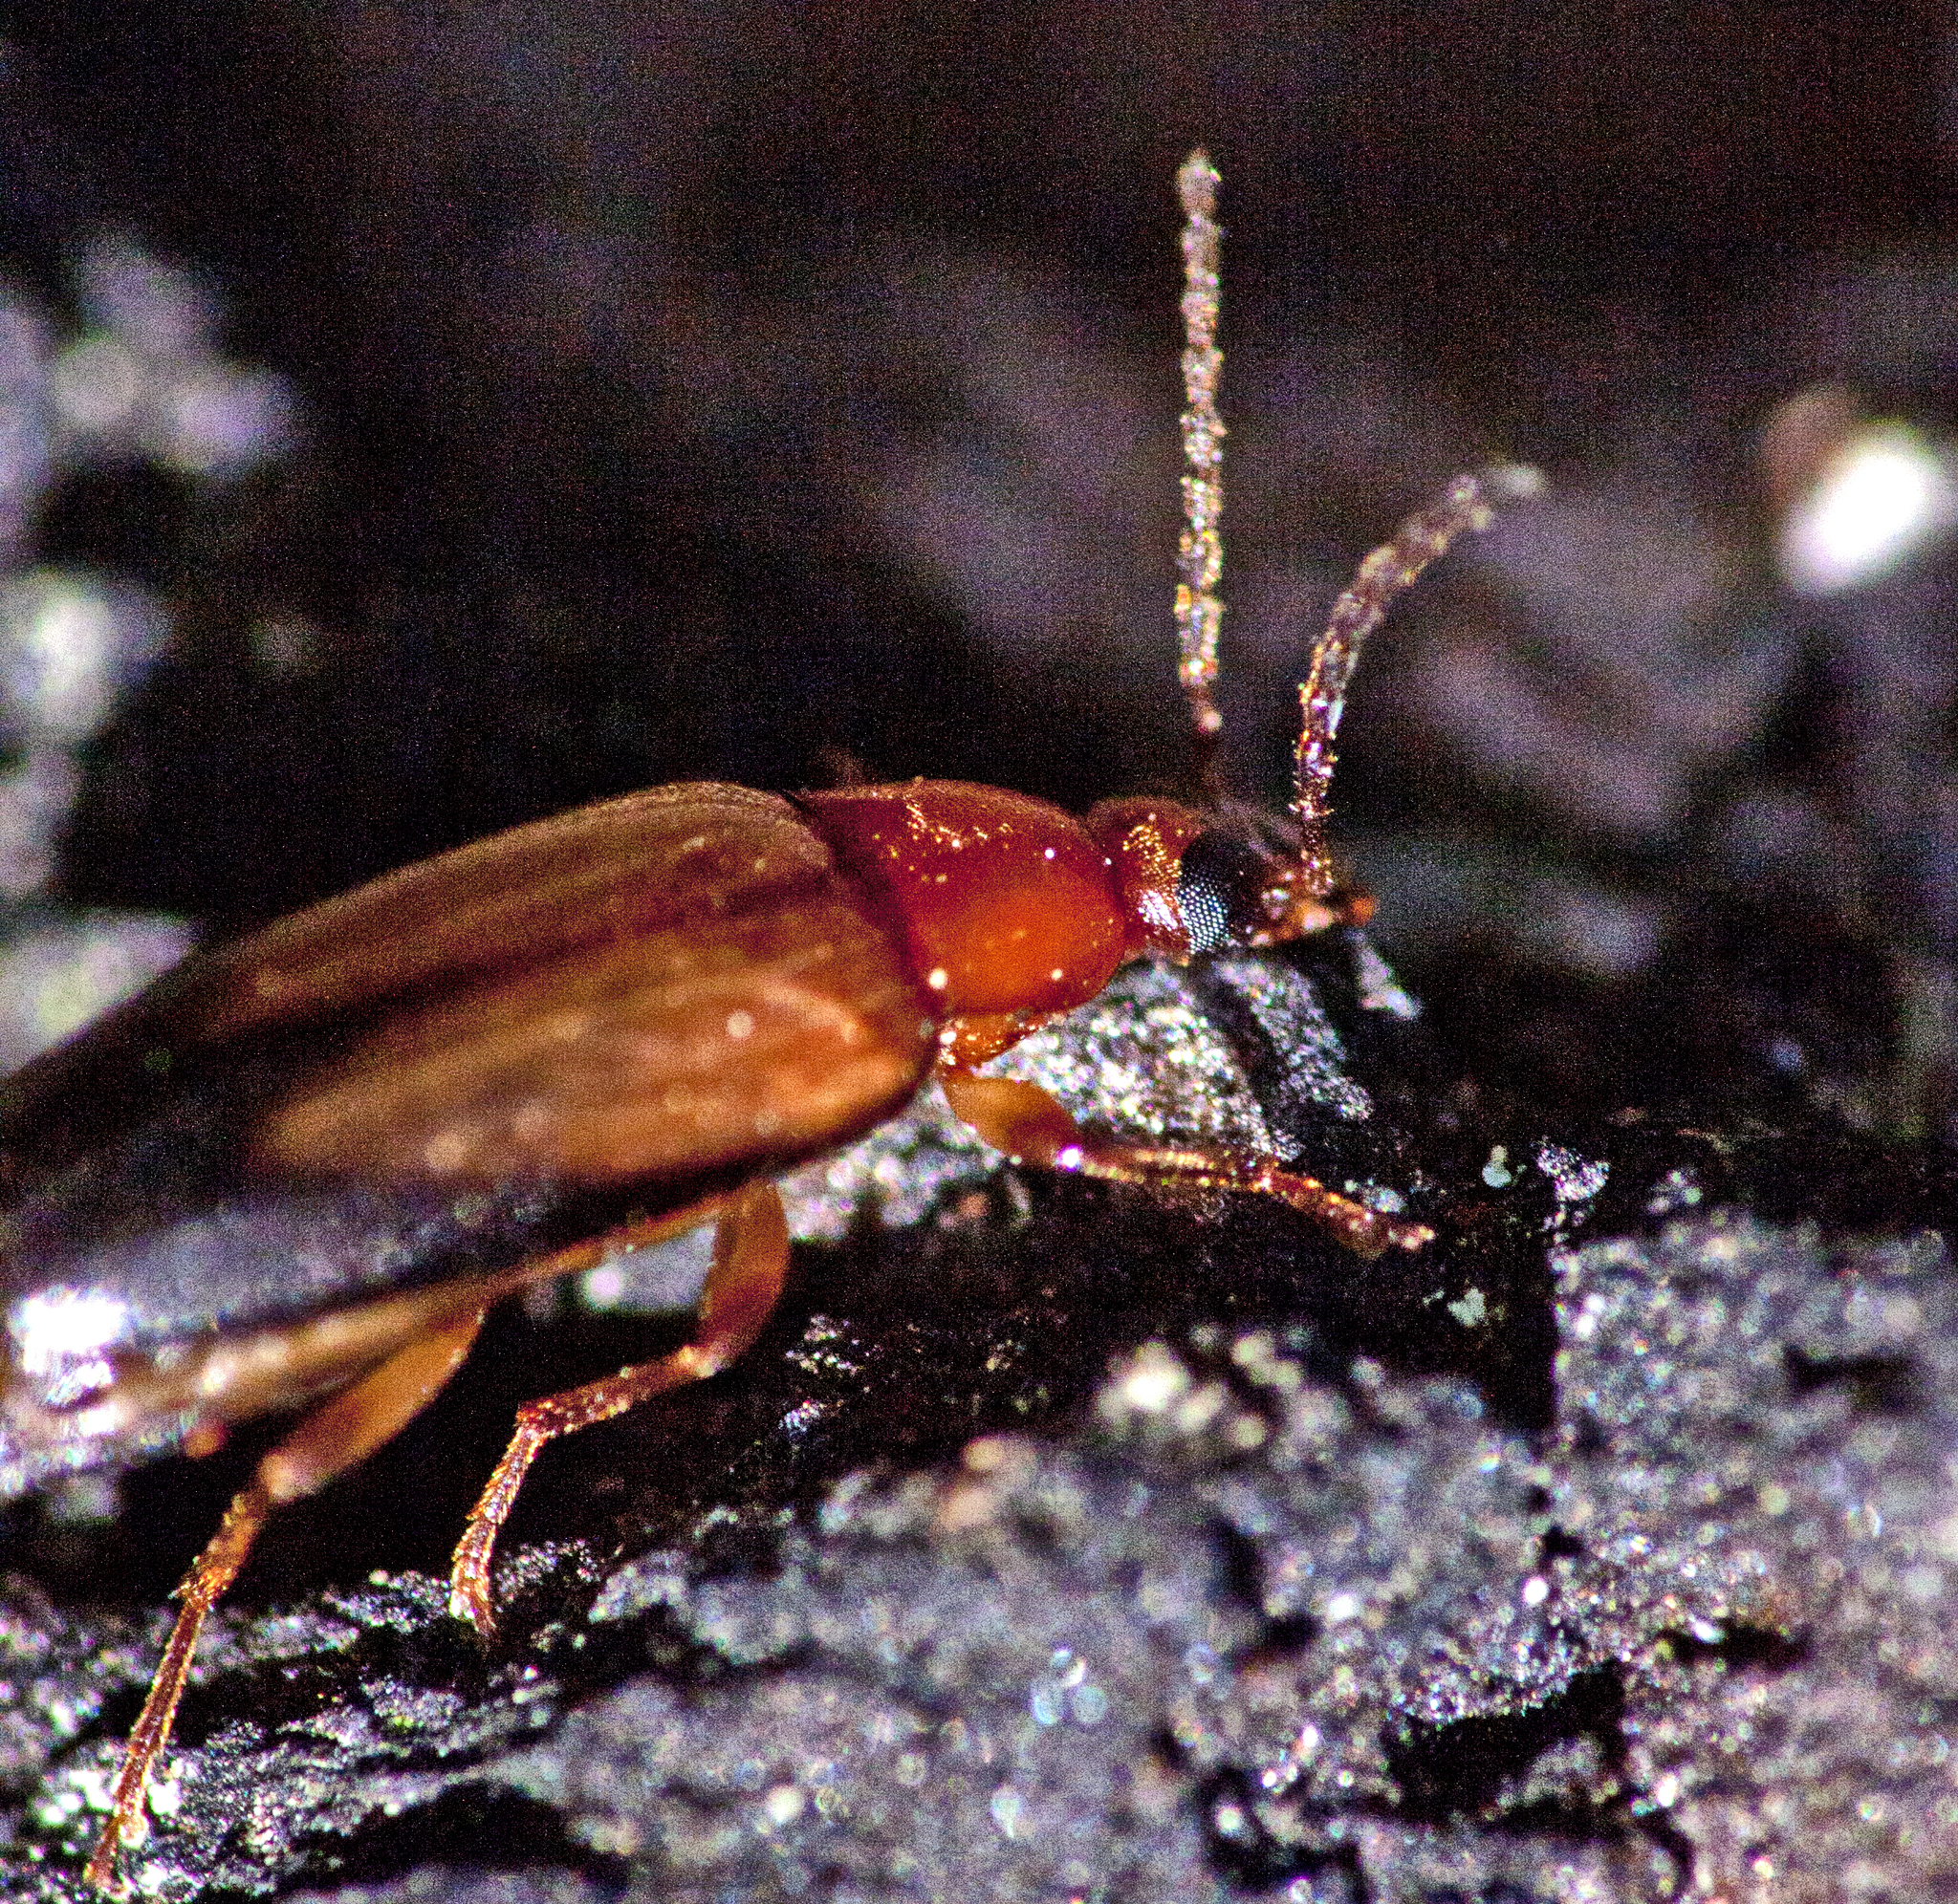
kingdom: Animalia
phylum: Arthropoda
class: Insecta
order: Coleoptera
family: Tenebrionidae
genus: Euomma
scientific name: Euomma
